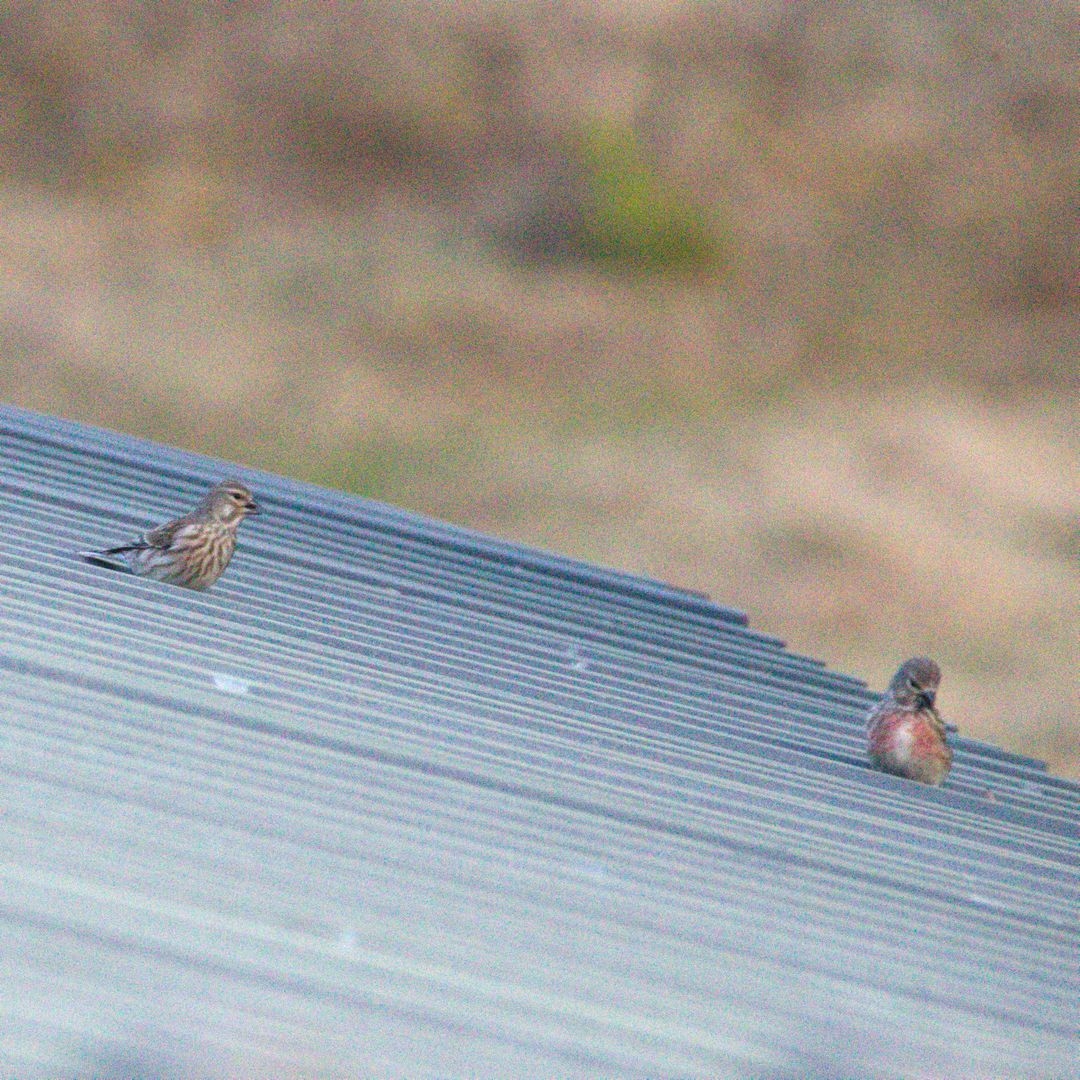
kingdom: Animalia
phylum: Chordata
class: Aves
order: Passeriformes
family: Fringillidae
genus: Linaria
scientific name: Linaria cannabina
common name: Common linnet
